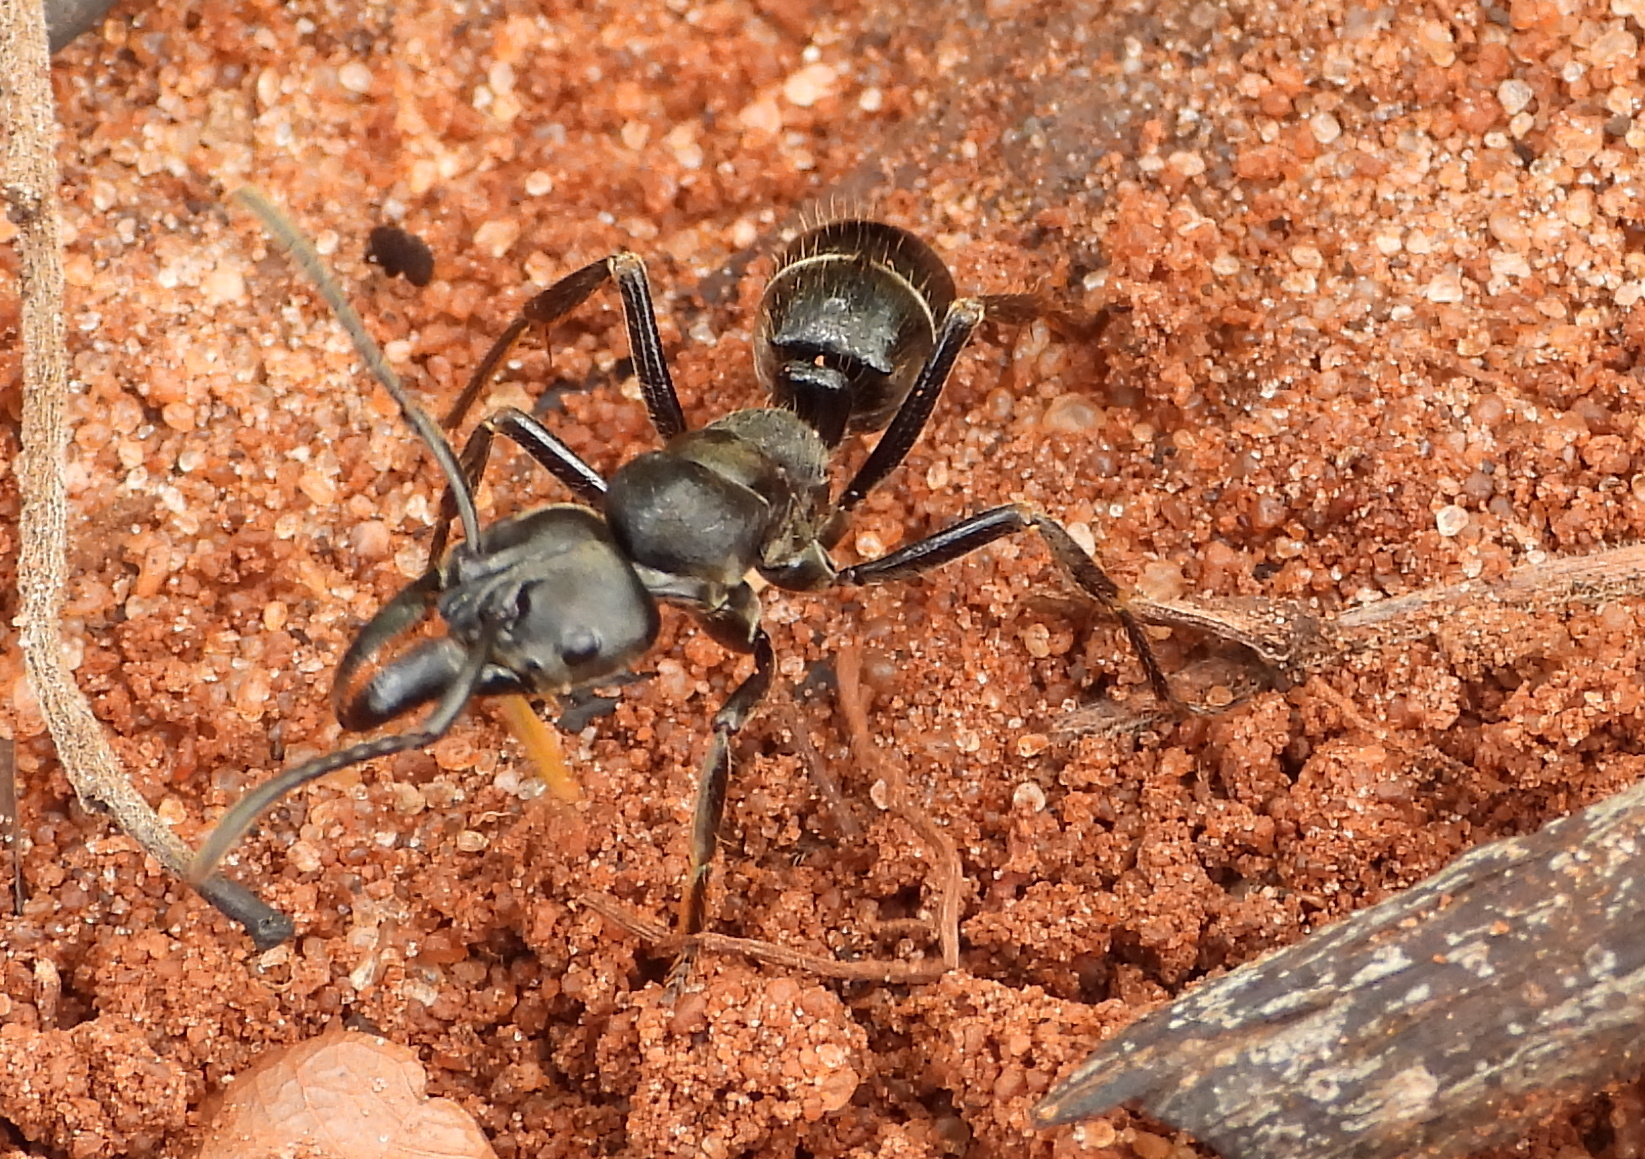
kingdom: Animalia
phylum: Arthropoda
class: Insecta
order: Hymenoptera
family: Formicidae
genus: Paltothyreus
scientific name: Paltothyreus tarsatus
